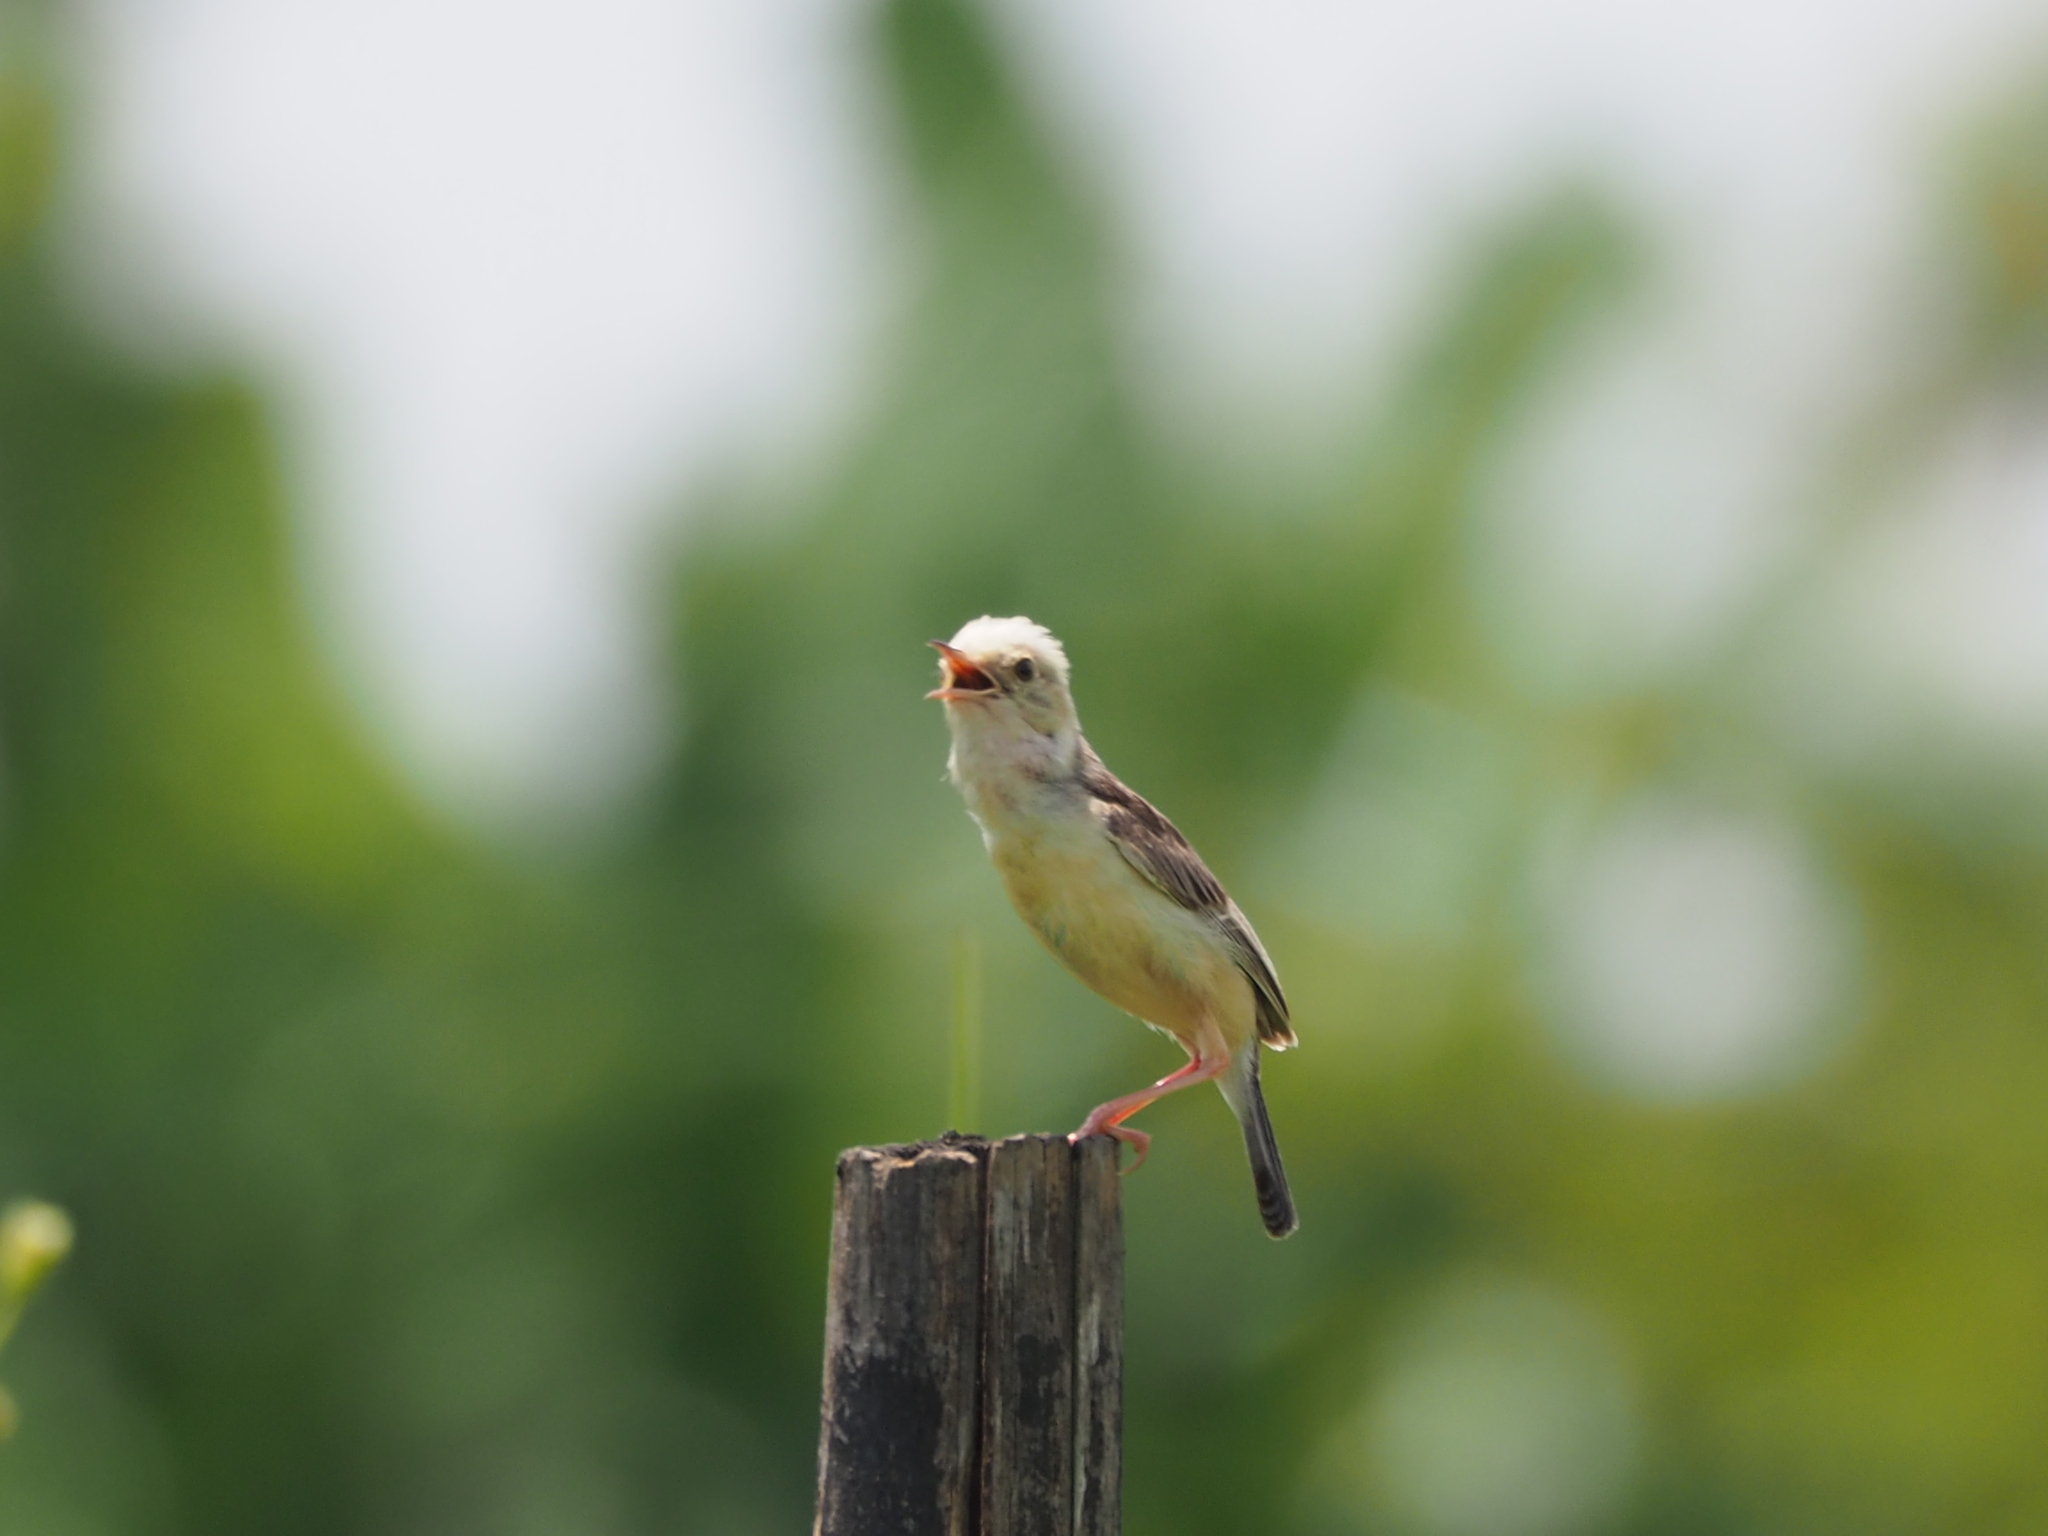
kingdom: Animalia
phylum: Chordata
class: Aves
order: Passeriformes
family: Cisticolidae
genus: Cisticola
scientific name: Cisticola exilis
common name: Golden-headed cisticola
